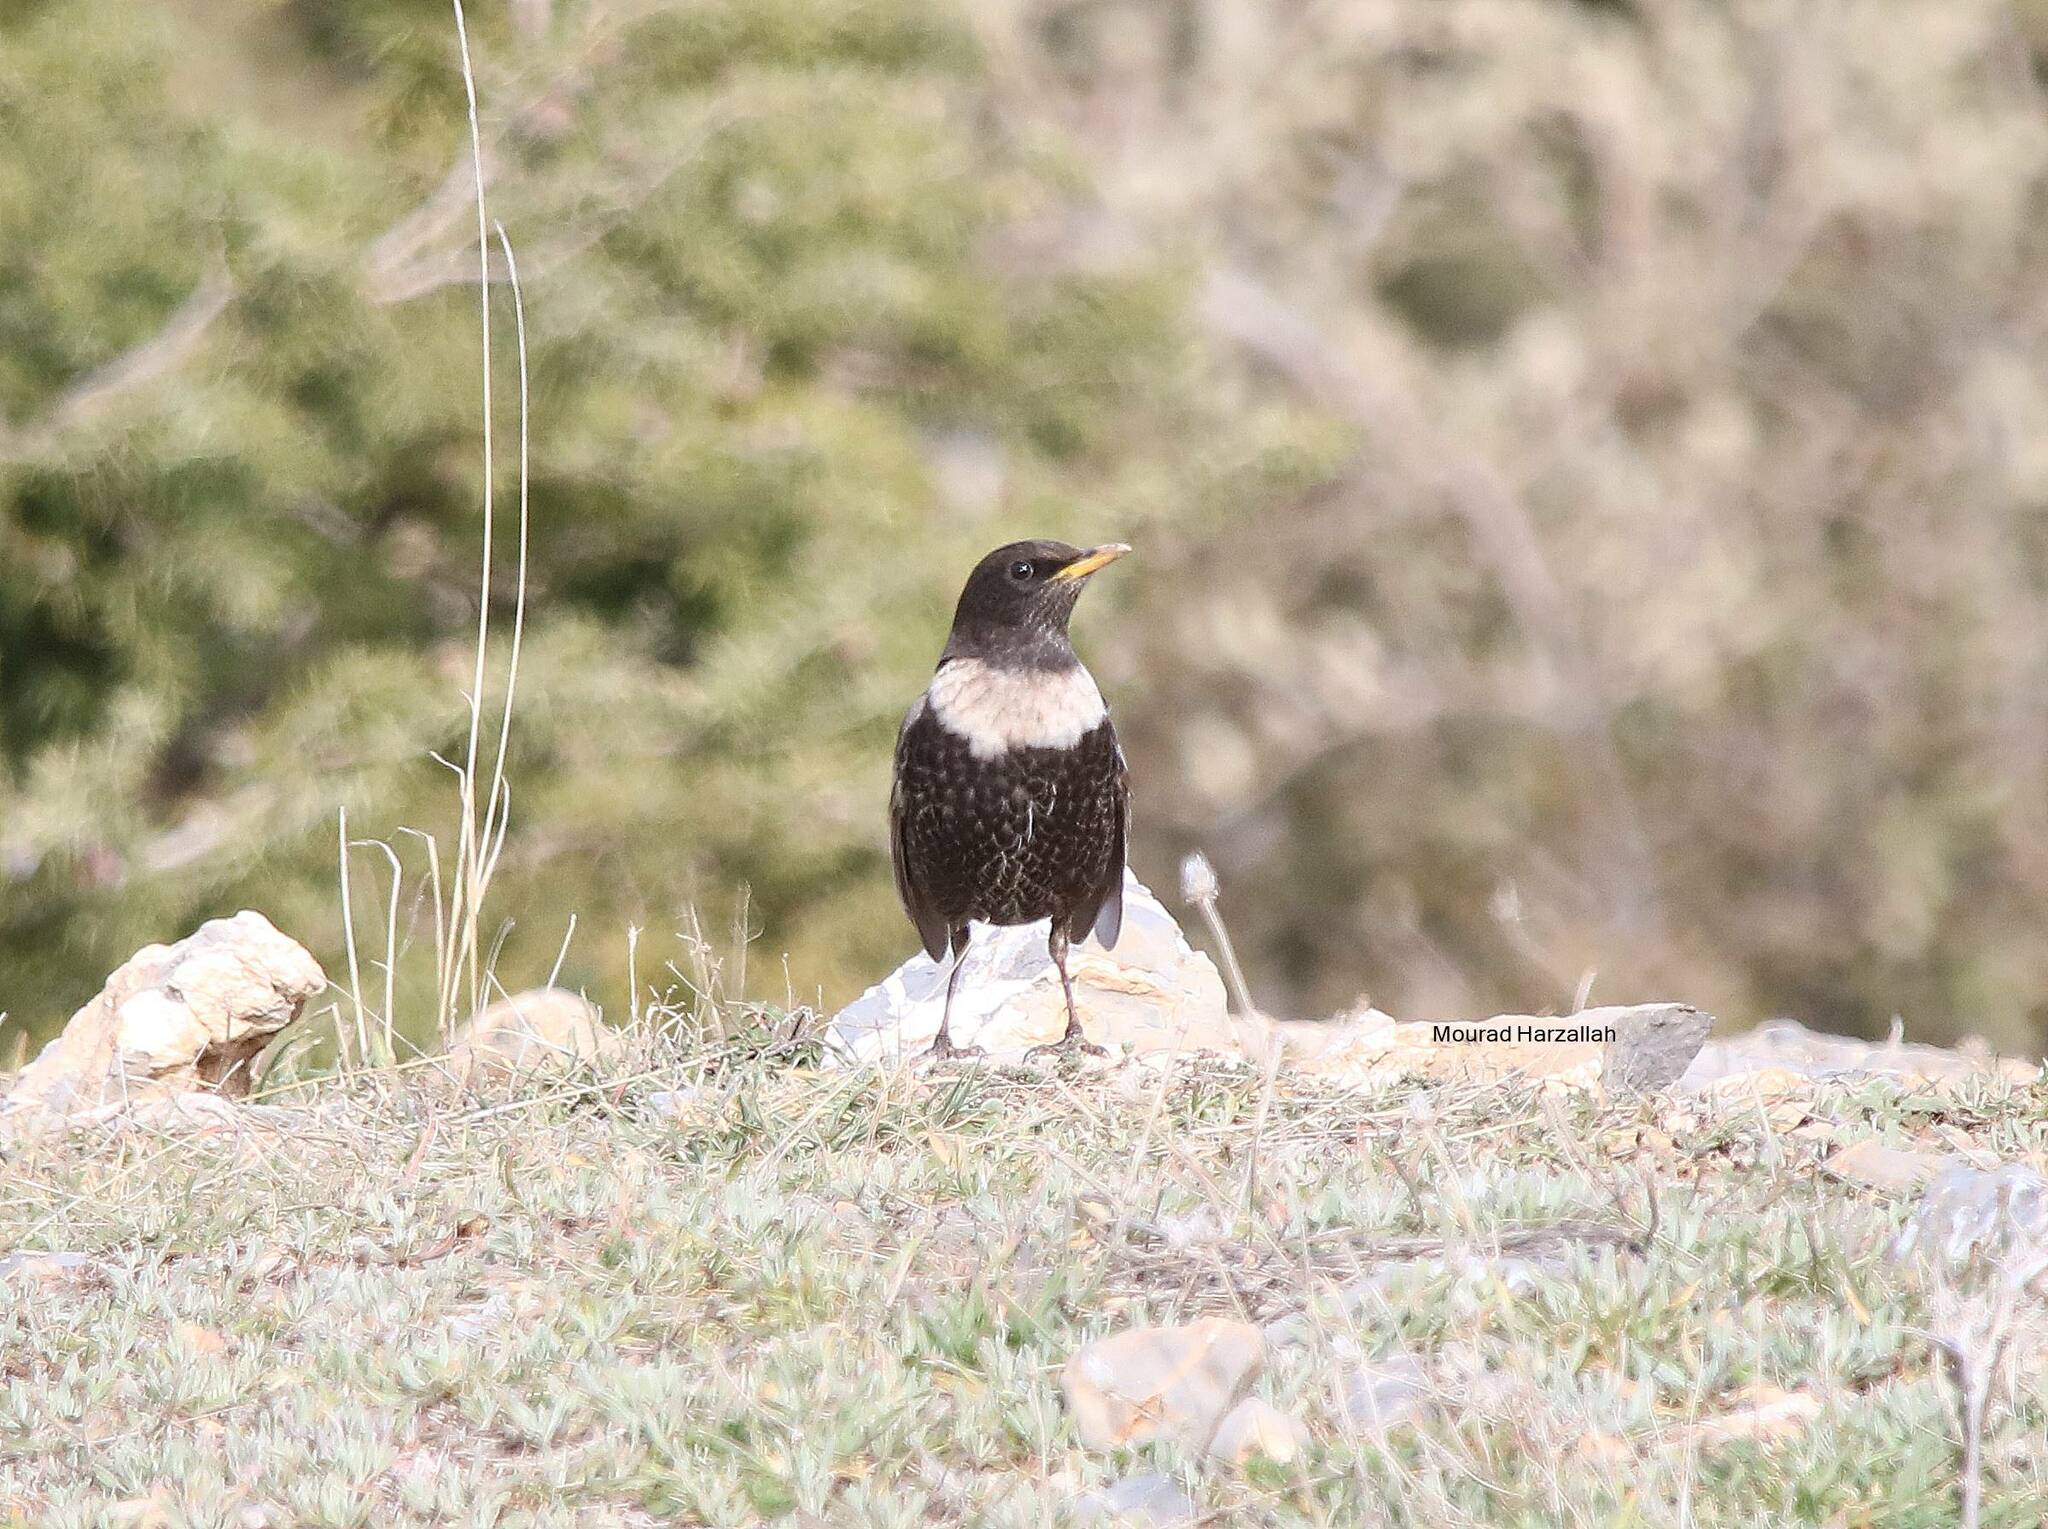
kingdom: Animalia
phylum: Chordata
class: Aves
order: Passeriformes
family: Turdidae
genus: Turdus
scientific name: Turdus torquatus
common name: Ring ouzel
